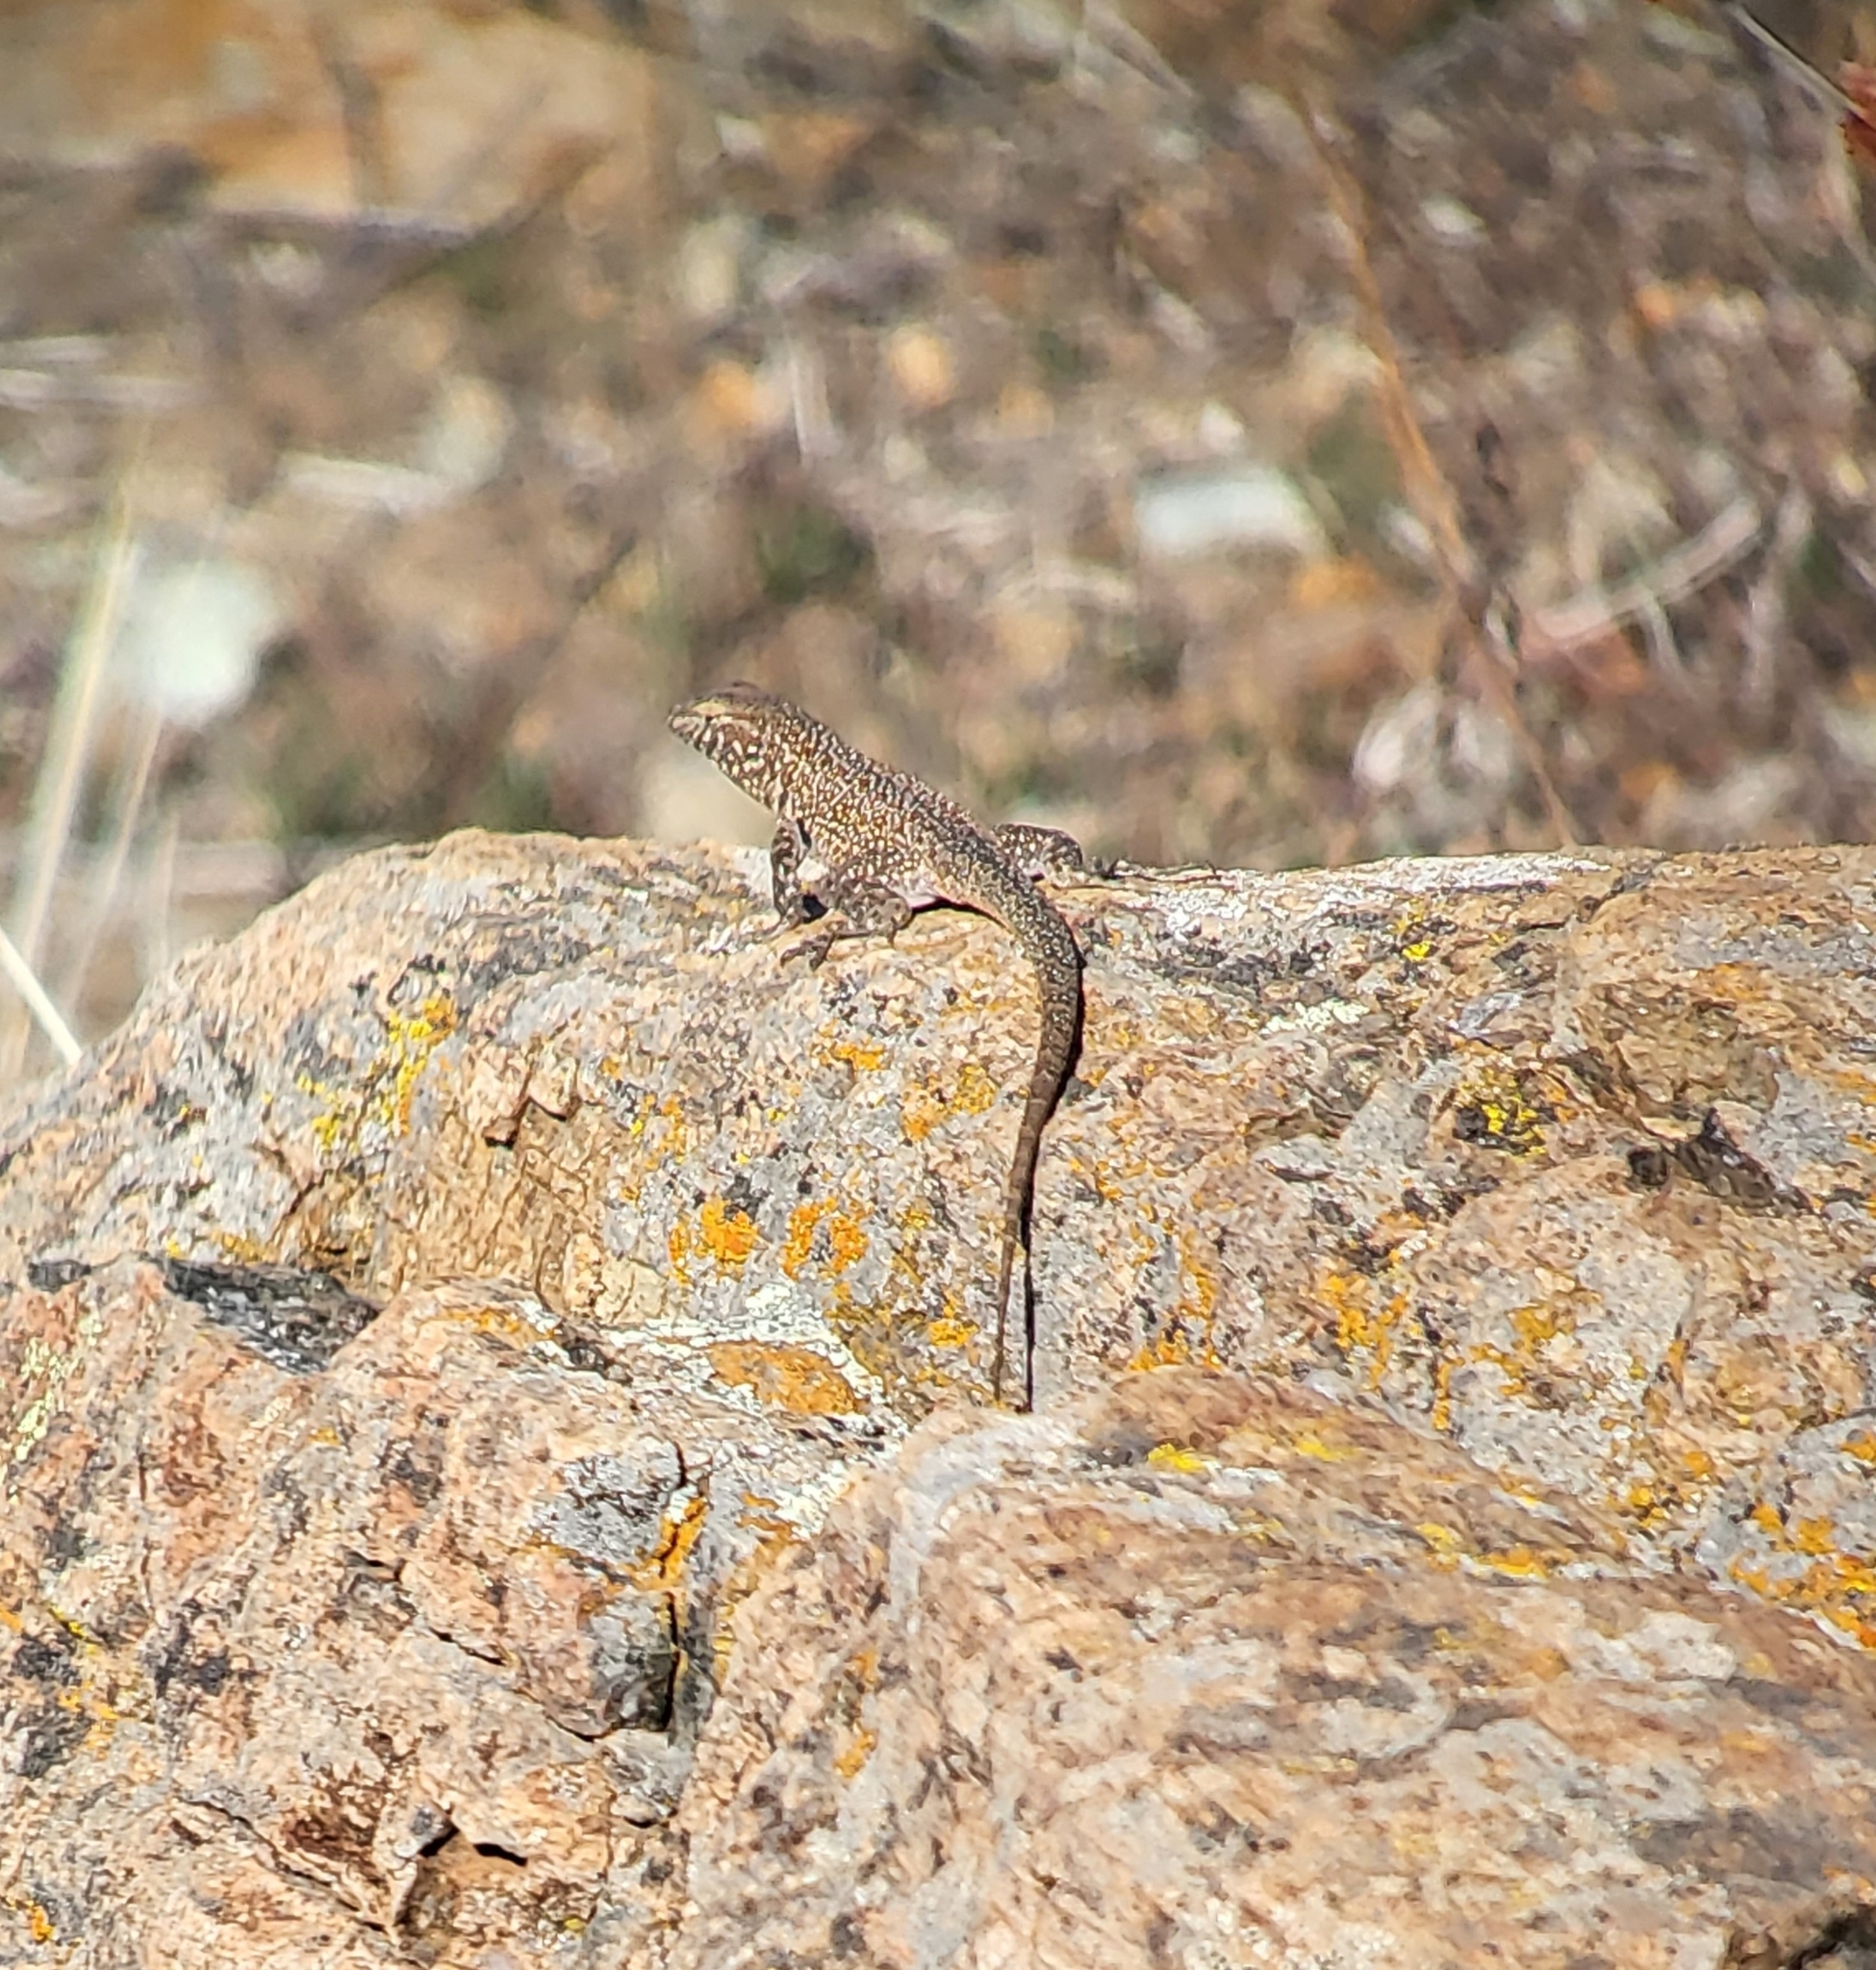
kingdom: Animalia
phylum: Chordata
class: Squamata
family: Phrynosomatidae
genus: Uta
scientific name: Uta stansburiana
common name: Side-blotched lizard
